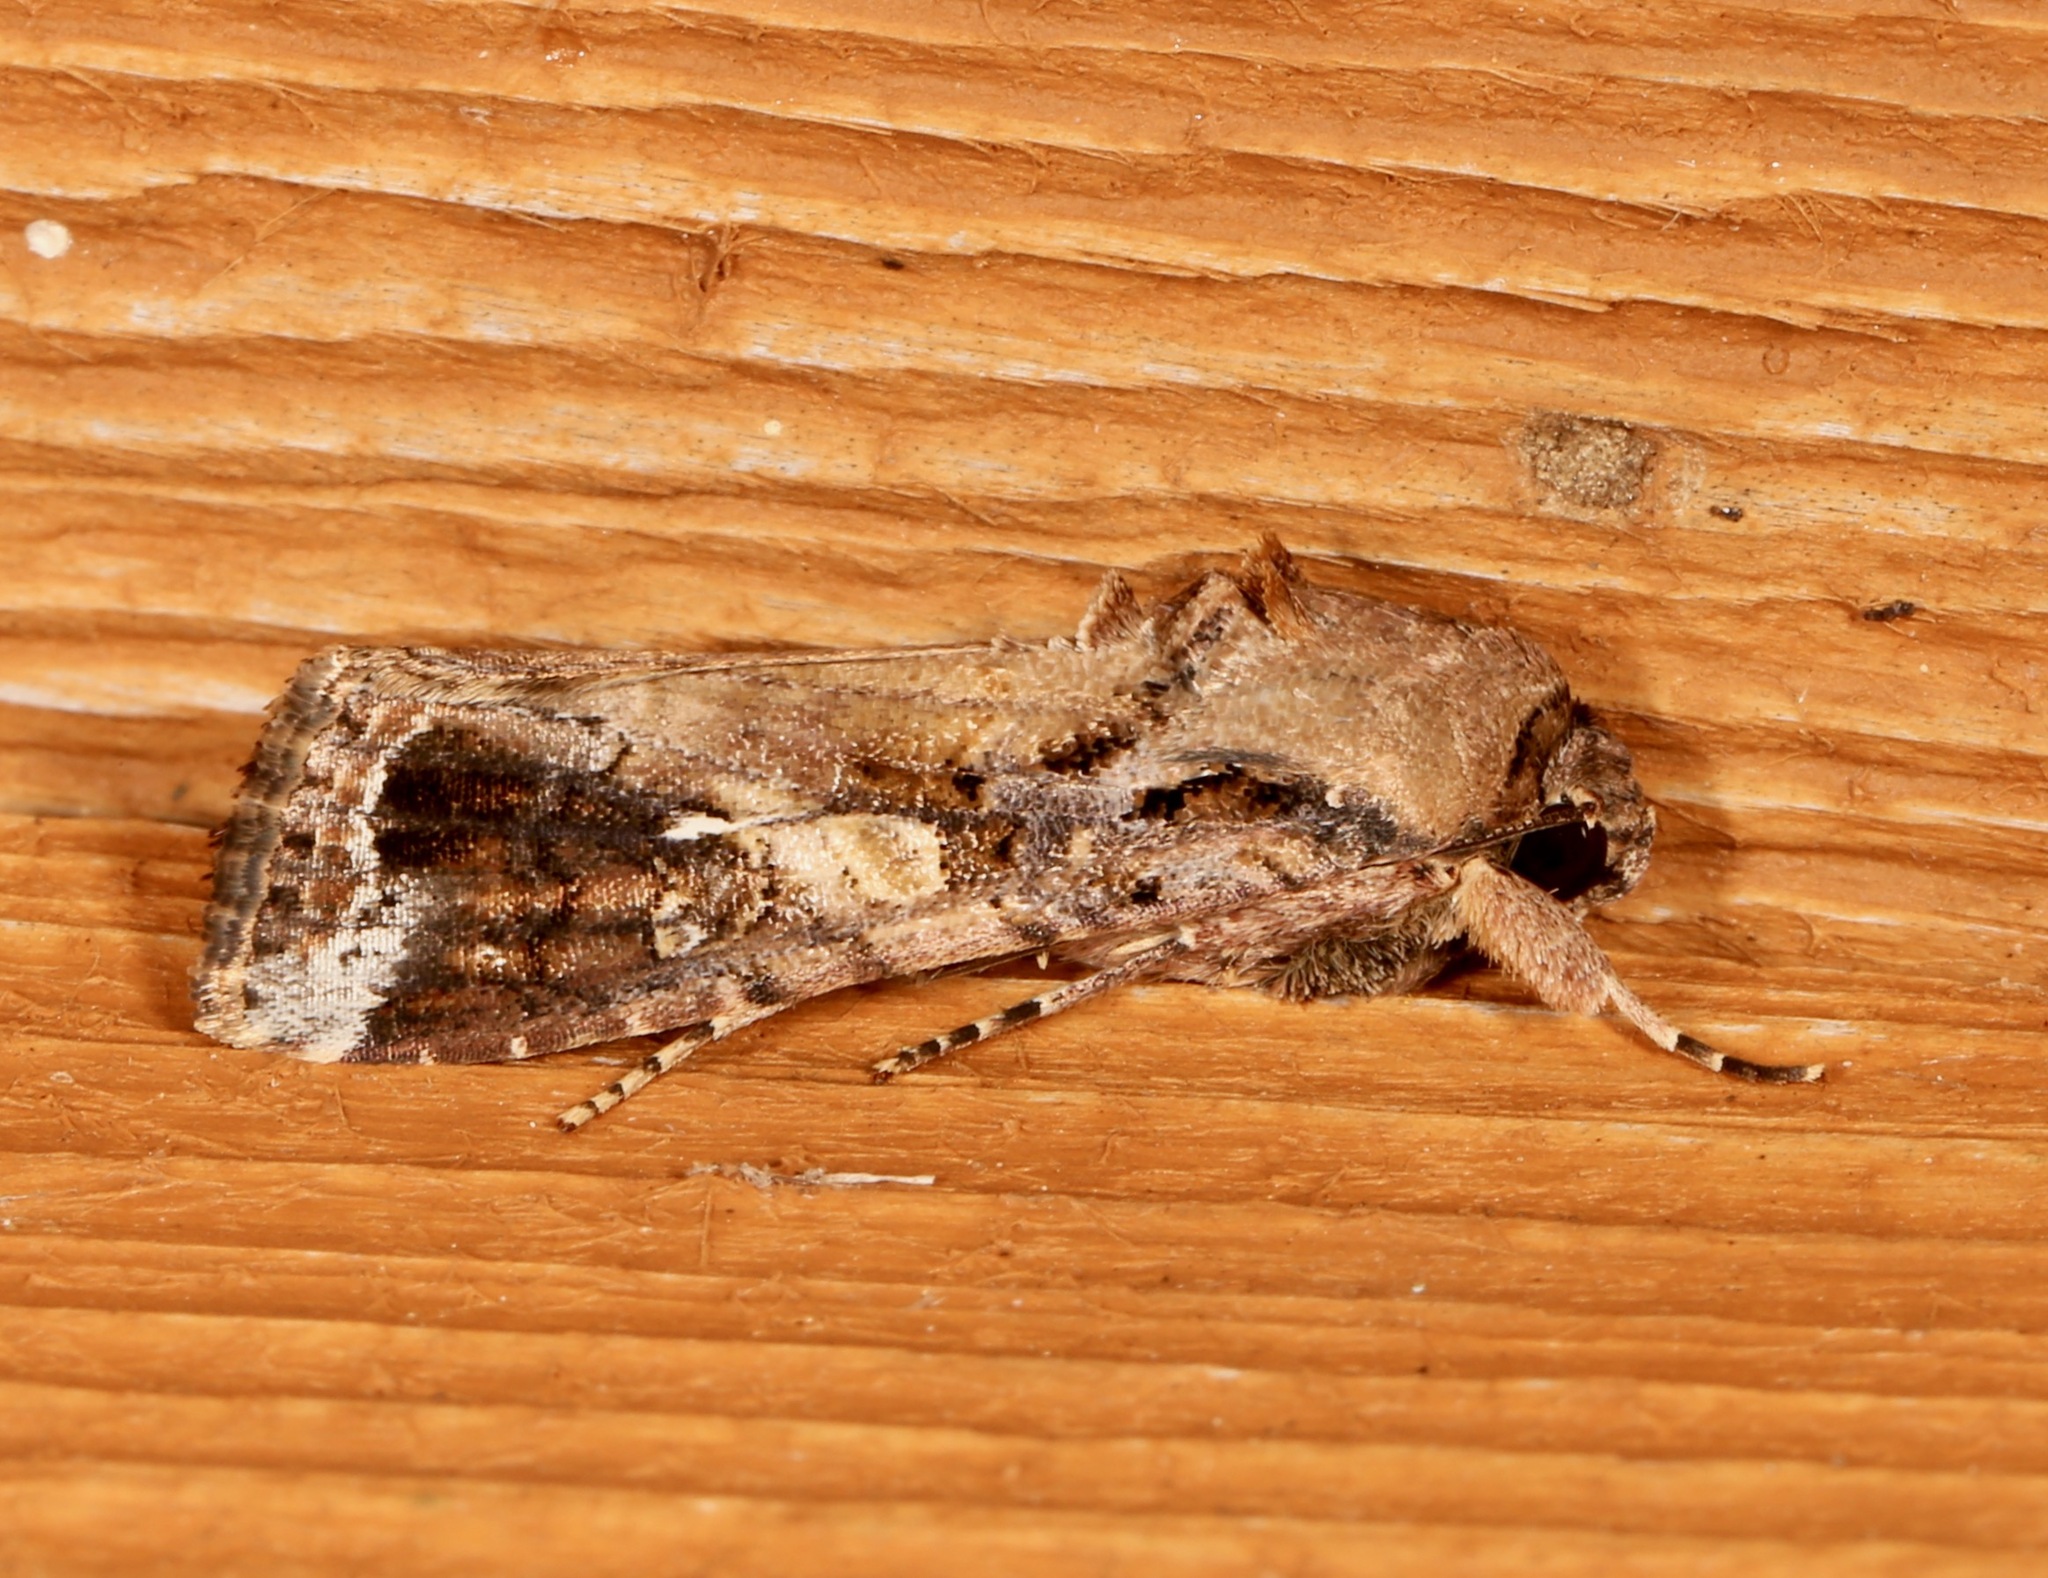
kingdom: Animalia
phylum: Arthropoda
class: Insecta
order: Lepidoptera
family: Noctuidae
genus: Spodoptera
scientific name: Spodoptera frugiperda
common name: Fall armyworm
